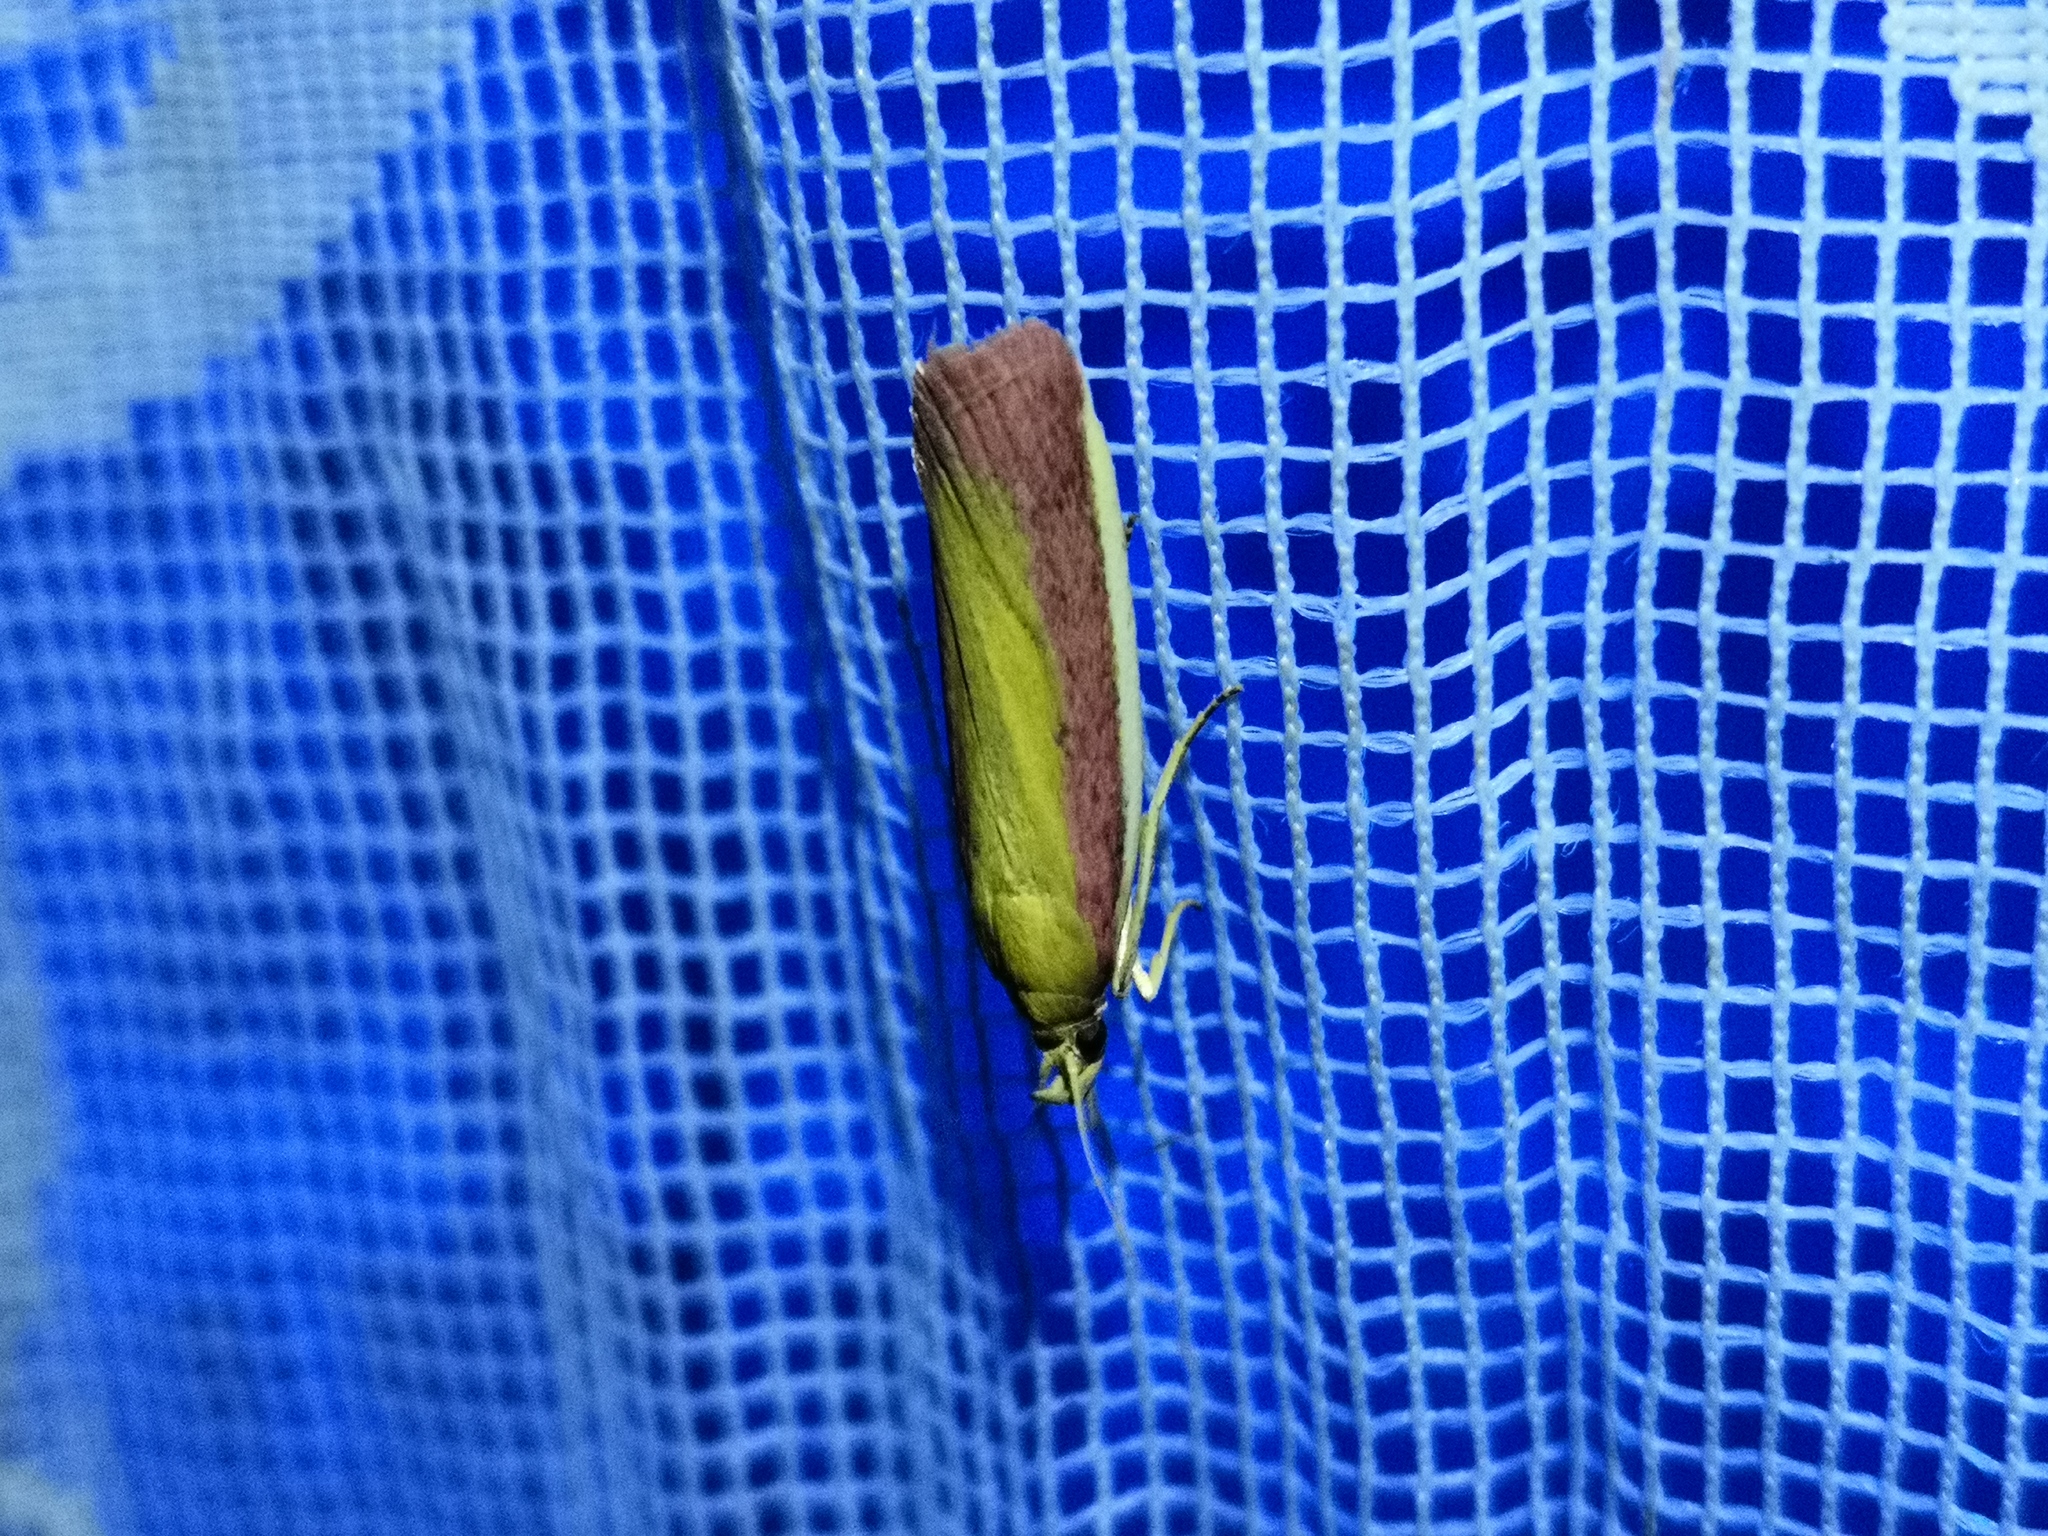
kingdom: Animalia
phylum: Arthropoda
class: Insecta
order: Lepidoptera
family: Pyralidae
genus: Oncocera
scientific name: Oncocera semirubella
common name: Rosy-striped knot-horn
